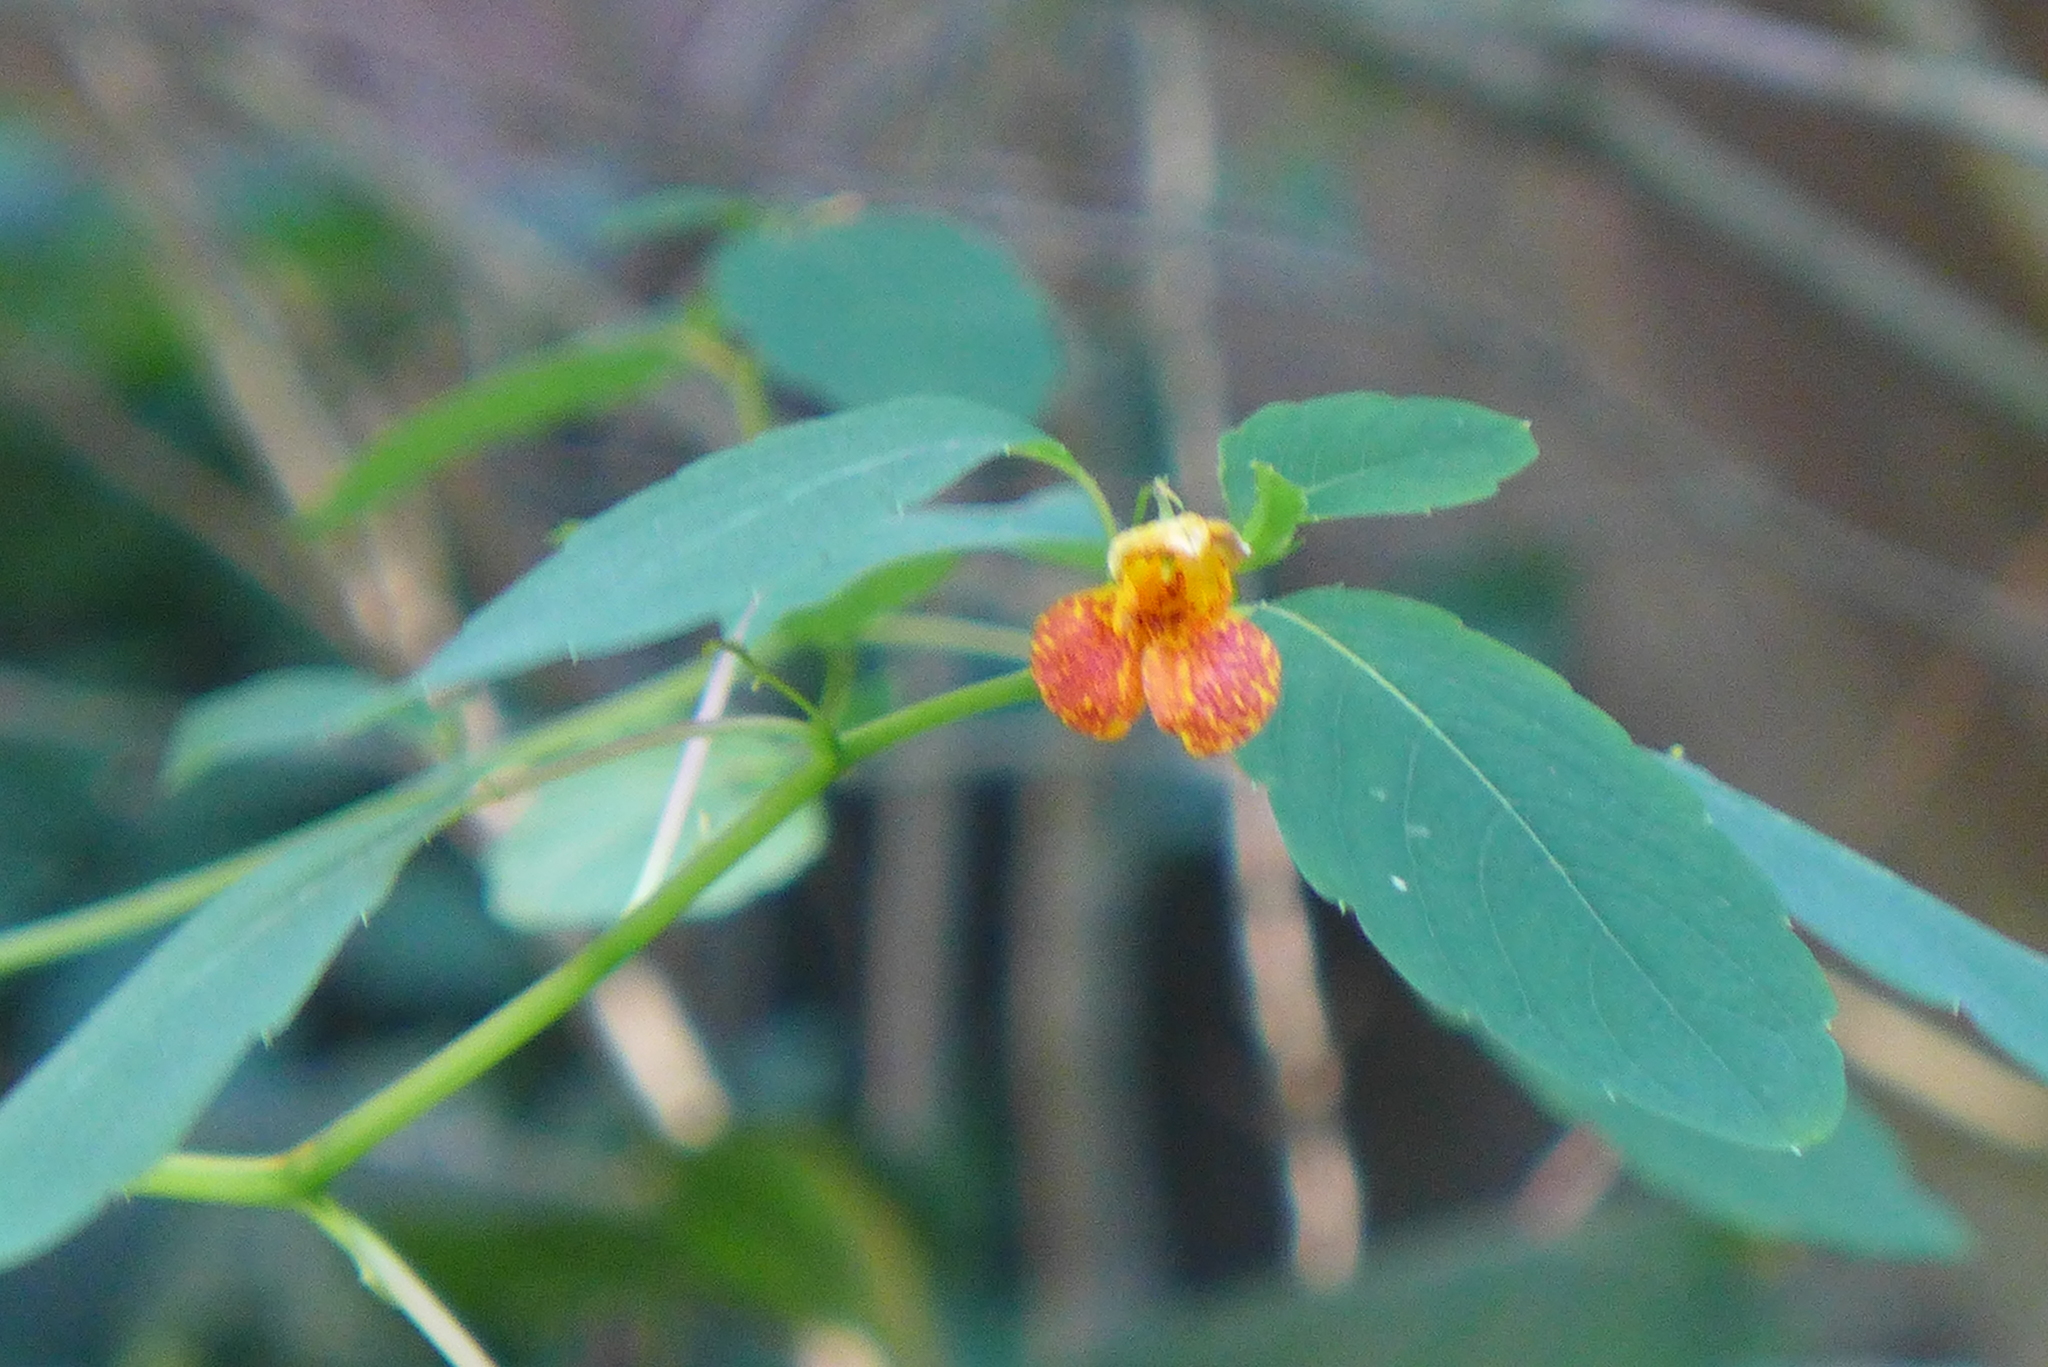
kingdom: Plantae
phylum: Tracheophyta
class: Magnoliopsida
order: Ericales
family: Balsaminaceae
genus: Impatiens
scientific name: Impatiens capensis
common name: Orange balsam
